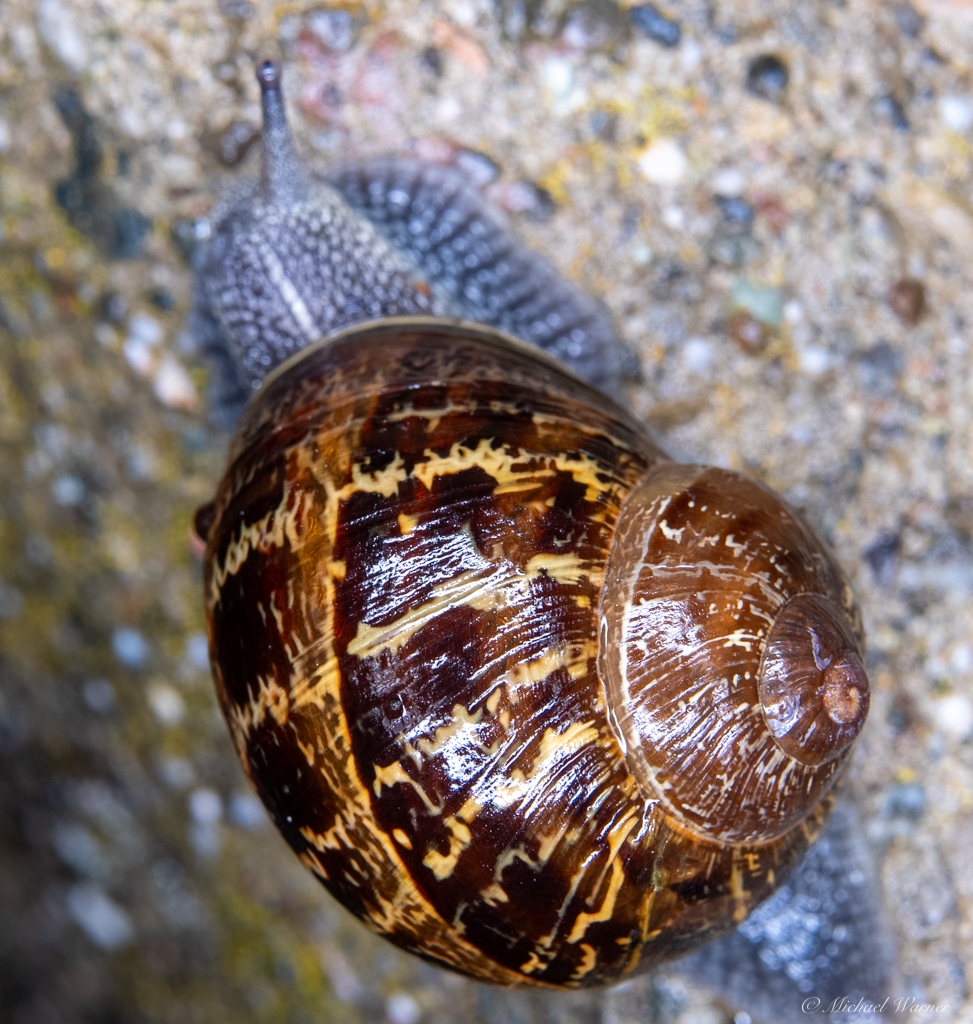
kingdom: Animalia
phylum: Mollusca
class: Gastropoda
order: Stylommatophora
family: Helicidae
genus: Cornu
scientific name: Cornu aspersum
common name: Brown garden snail
